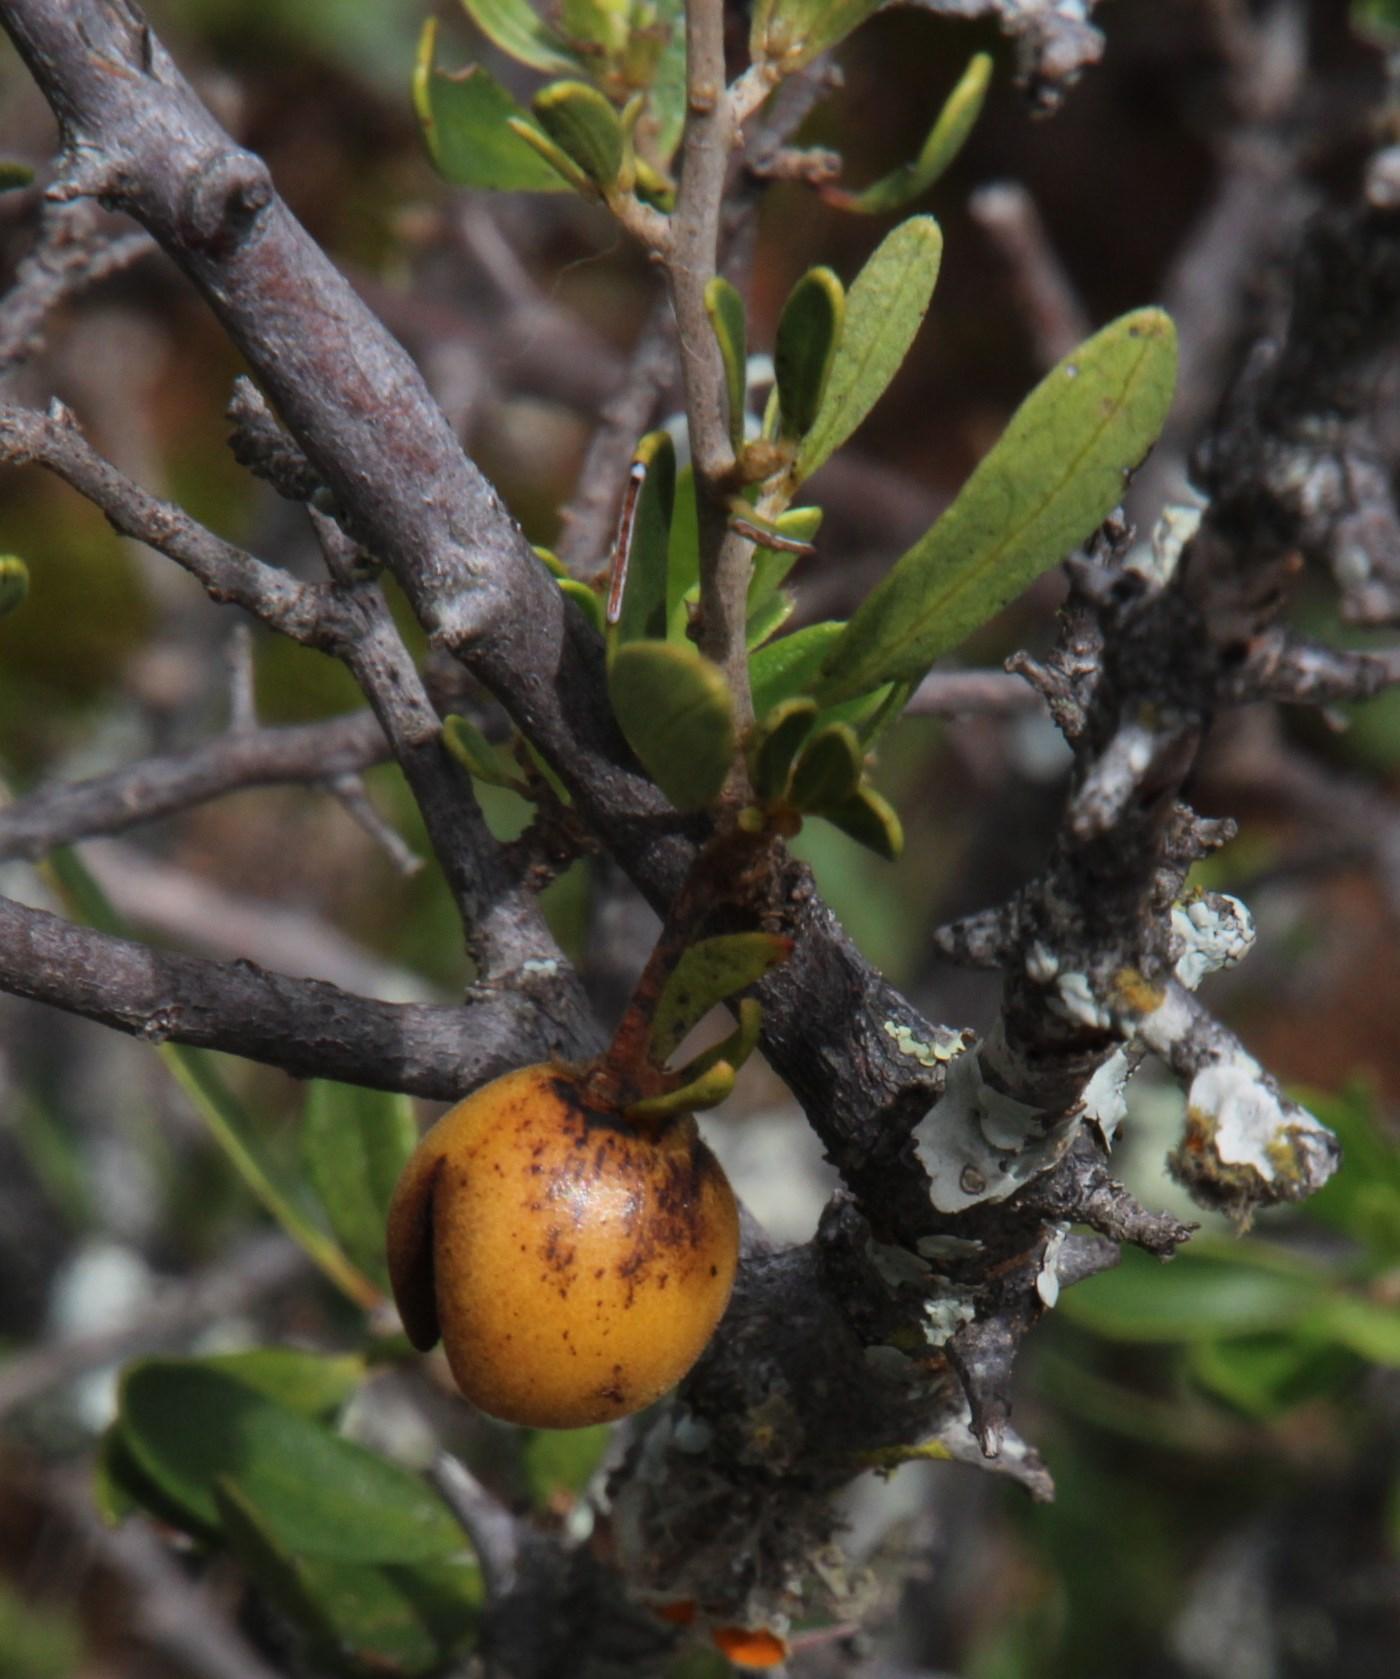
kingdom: Plantae
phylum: Tracheophyta
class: Magnoliopsida
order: Ericales
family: Ebenaceae
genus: Diospyros
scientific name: Diospyros lycioides
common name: Red star apple
